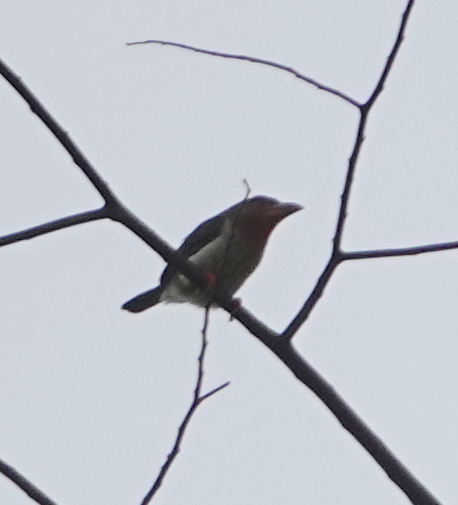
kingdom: Animalia
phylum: Chordata
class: Aves
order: Piciformes
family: Megalaimidae
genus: Caloramphus
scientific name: Caloramphus fuliginosus
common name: Brown barbet
